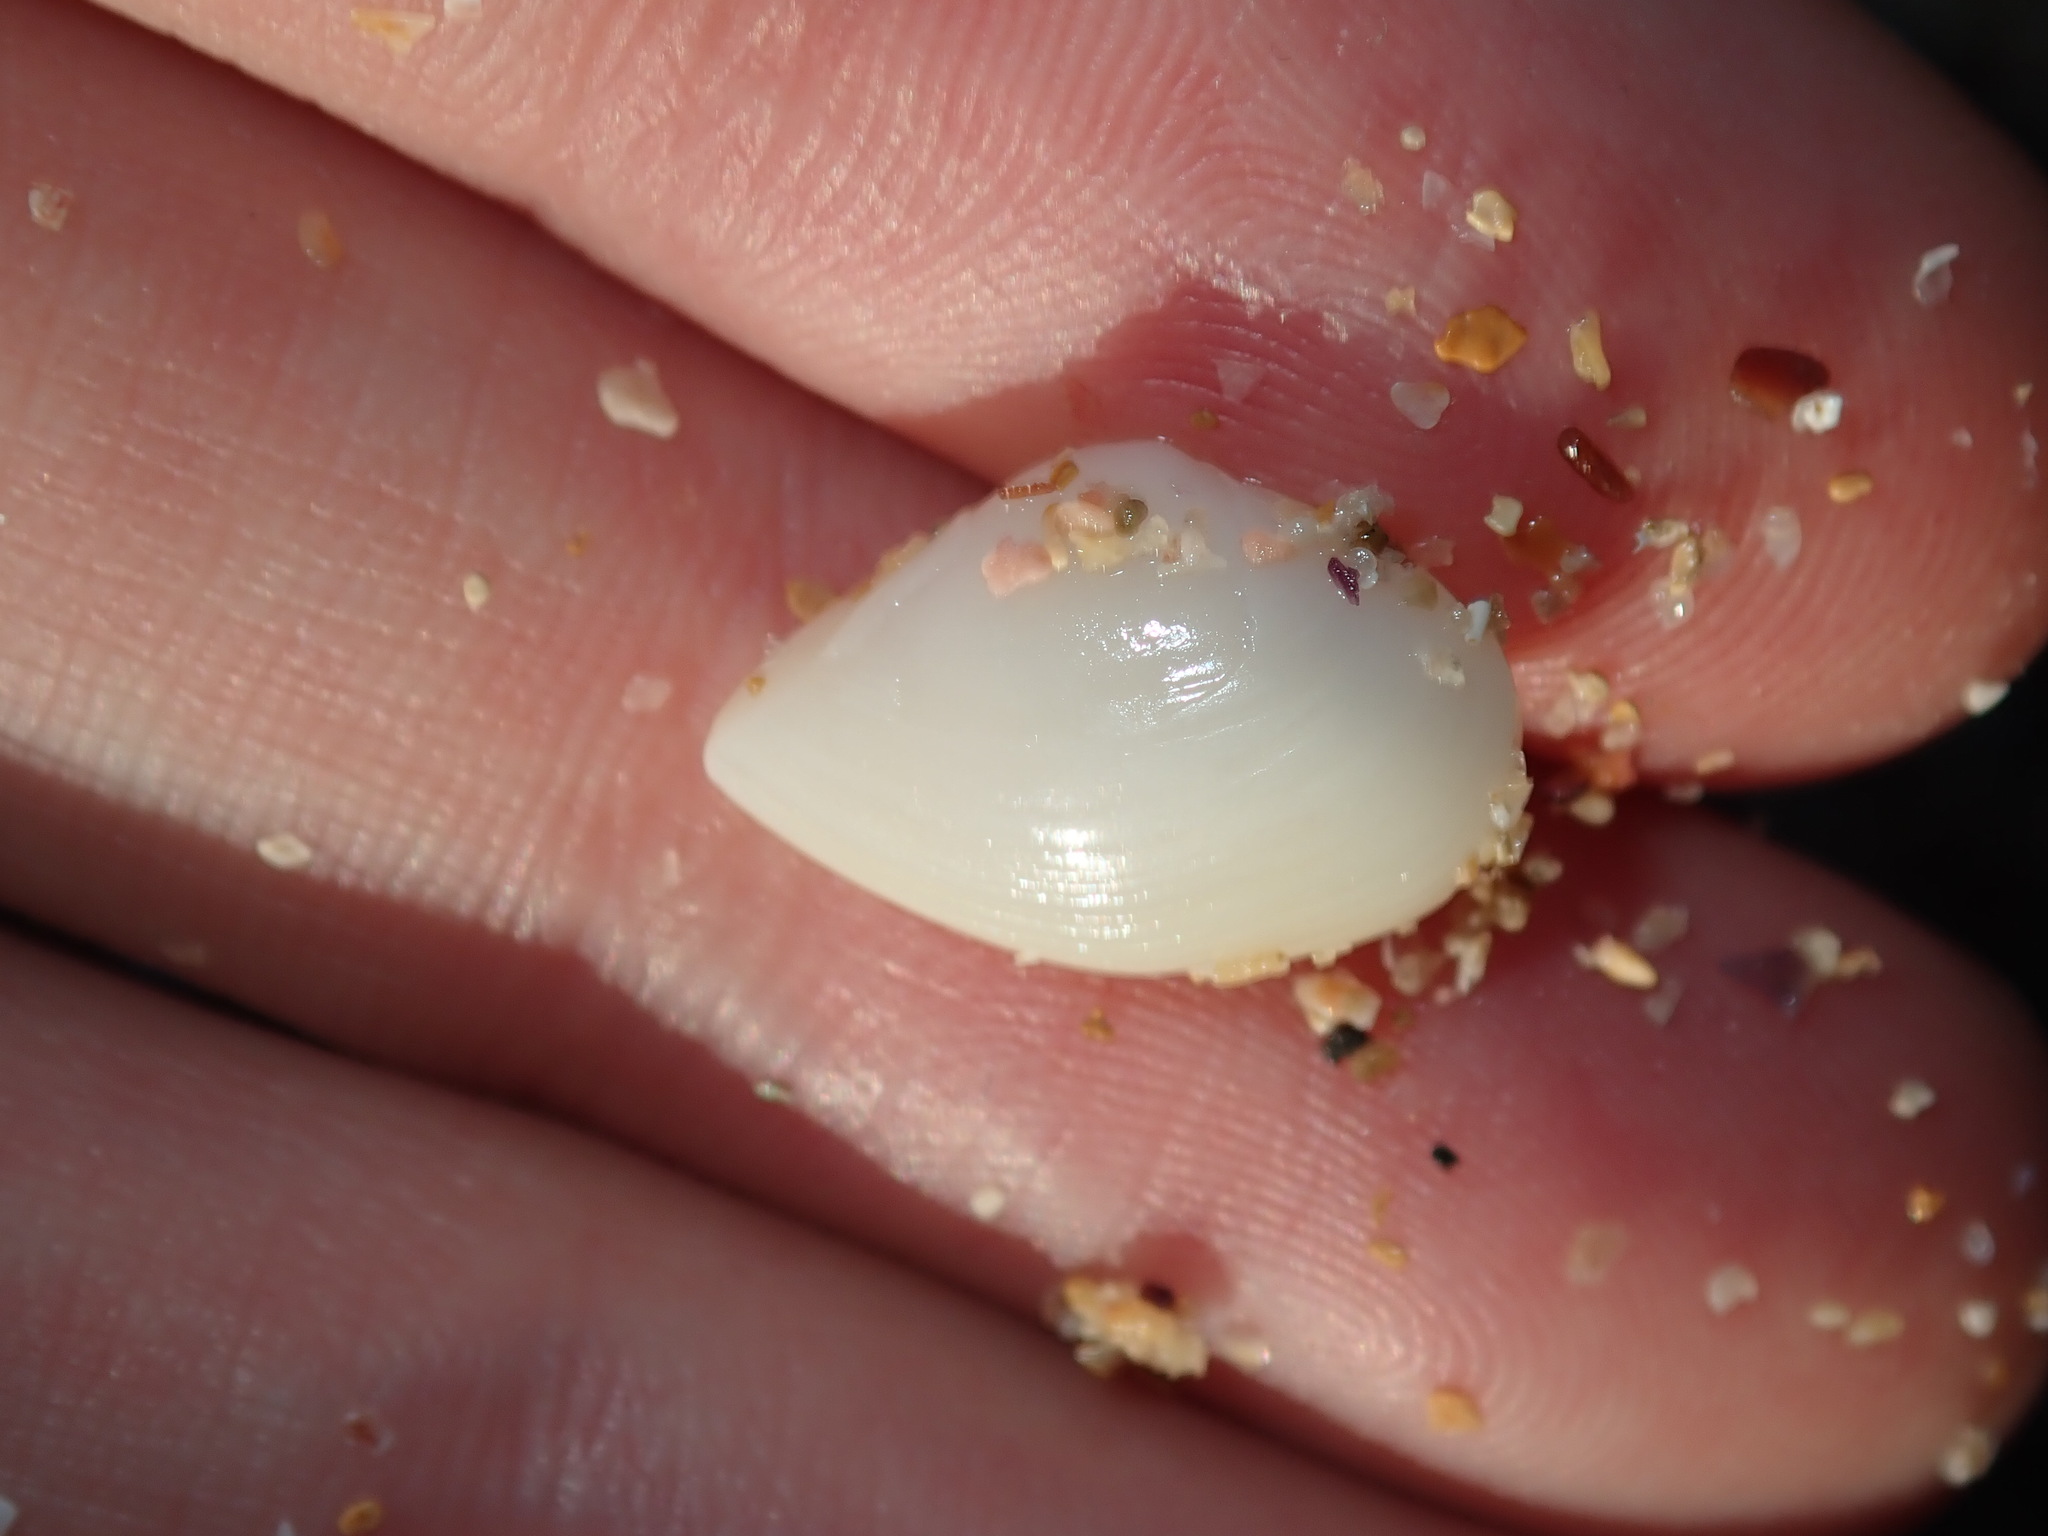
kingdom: Animalia
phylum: Mollusca
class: Bivalvia
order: Myida
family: Corbulidae
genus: Corbula
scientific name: Corbula smithiana
